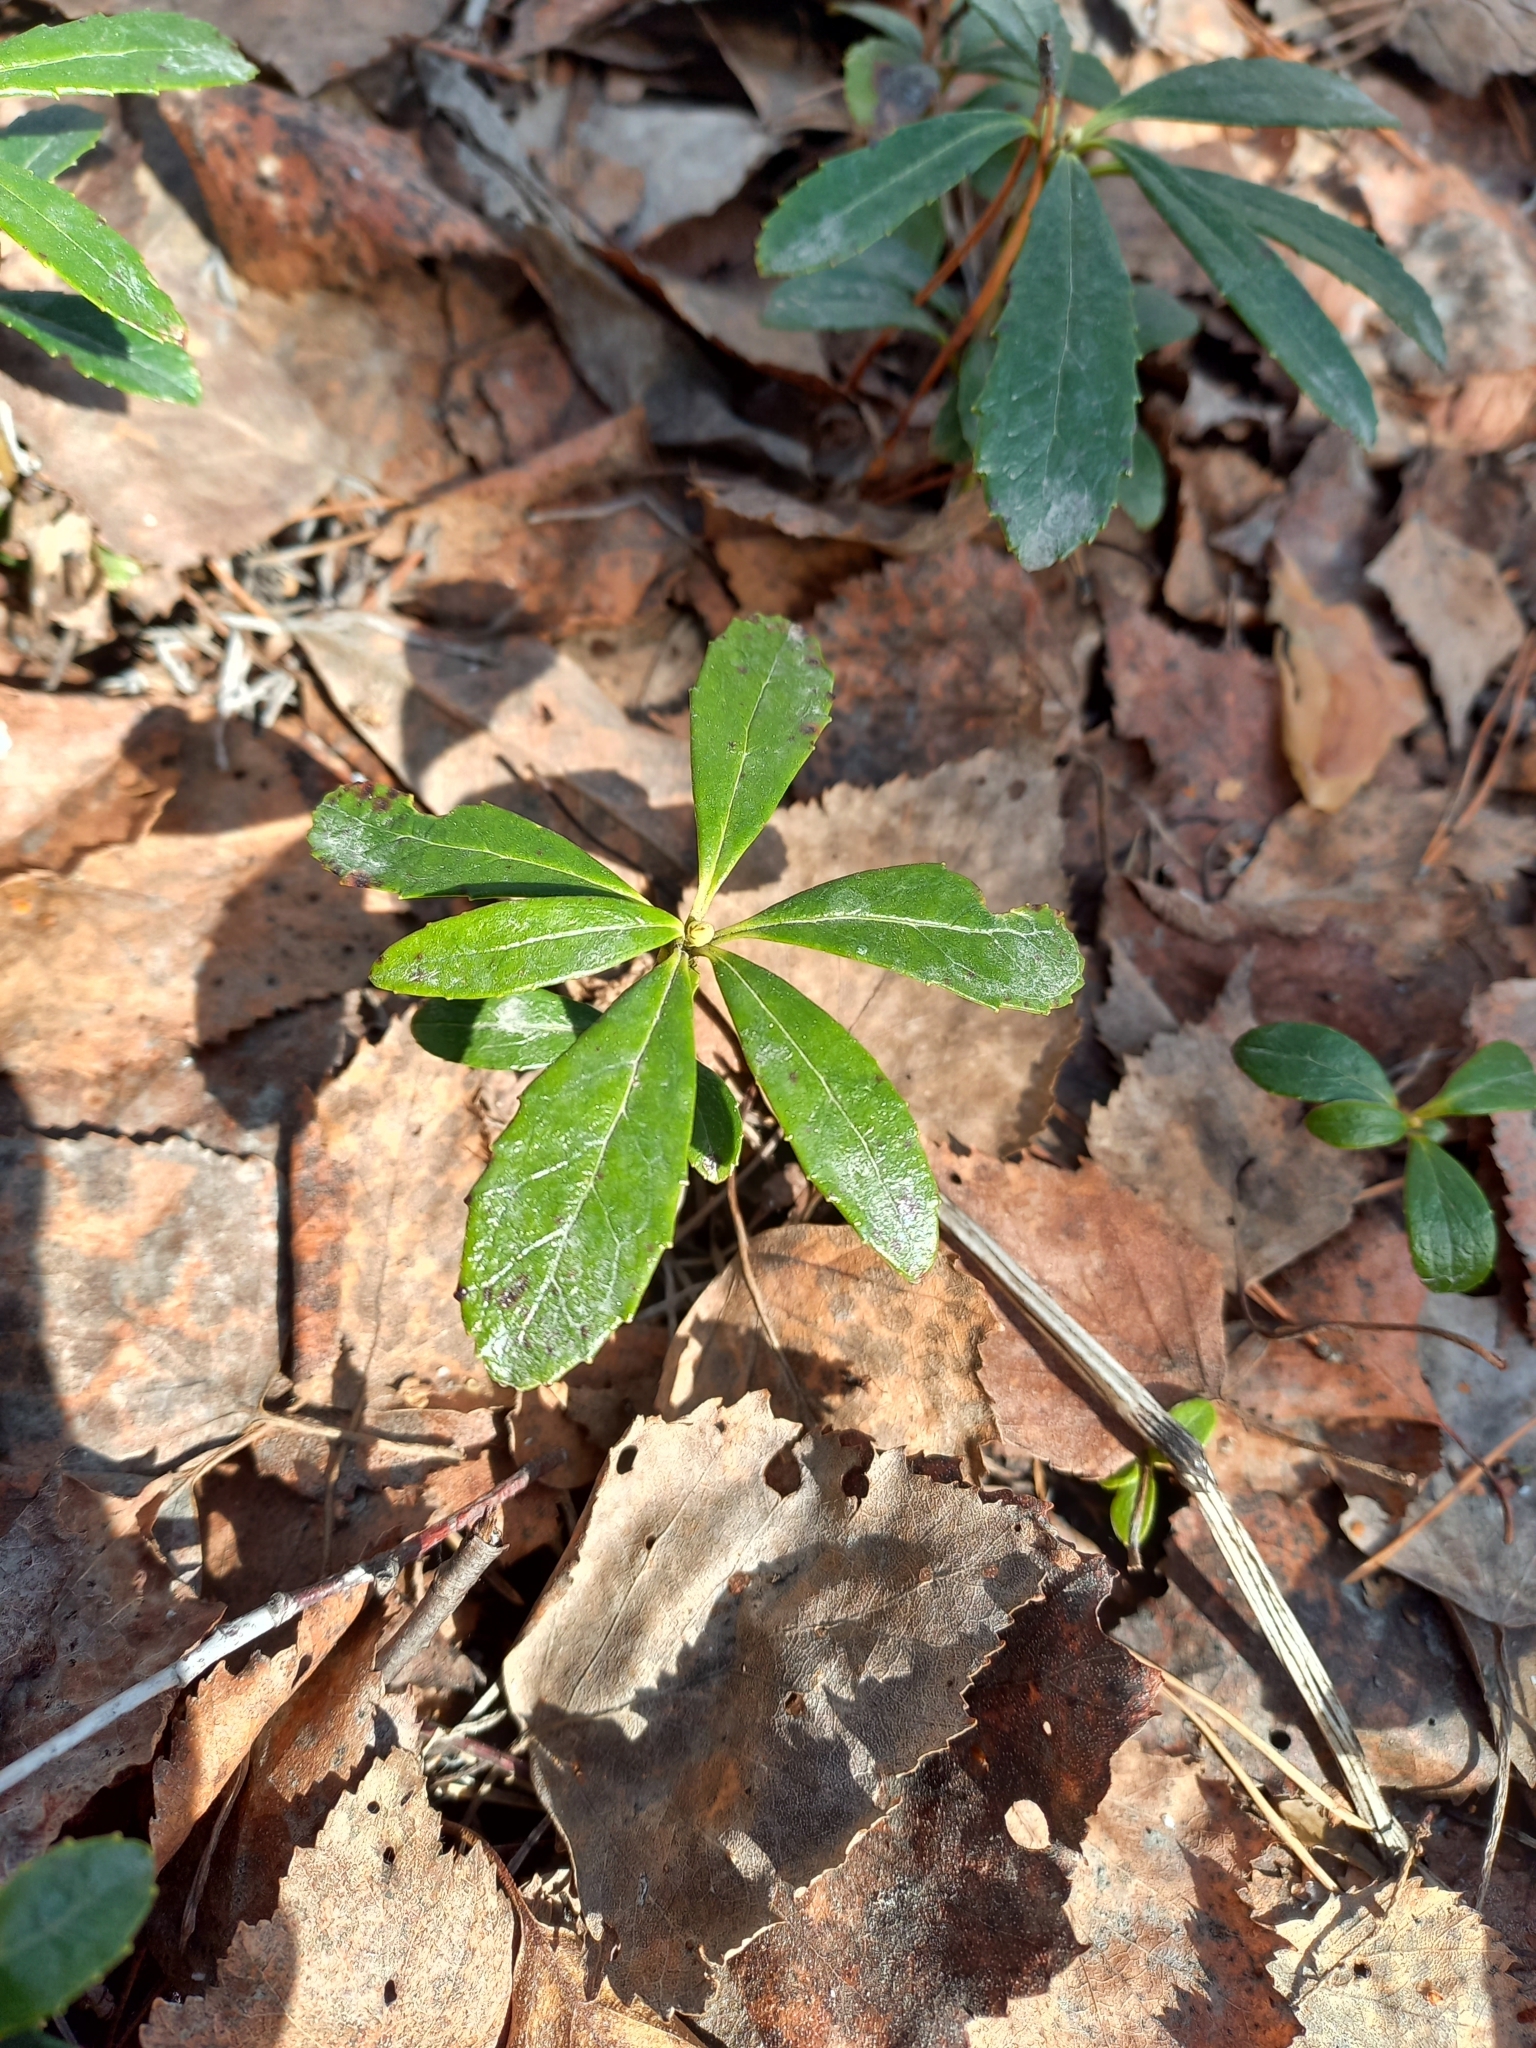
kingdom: Plantae
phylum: Tracheophyta
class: Magnoliopsida
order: Ericales
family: Ericaceae
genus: Chimaphila
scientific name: Chimaphila umbellata
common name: Pipsissewa
